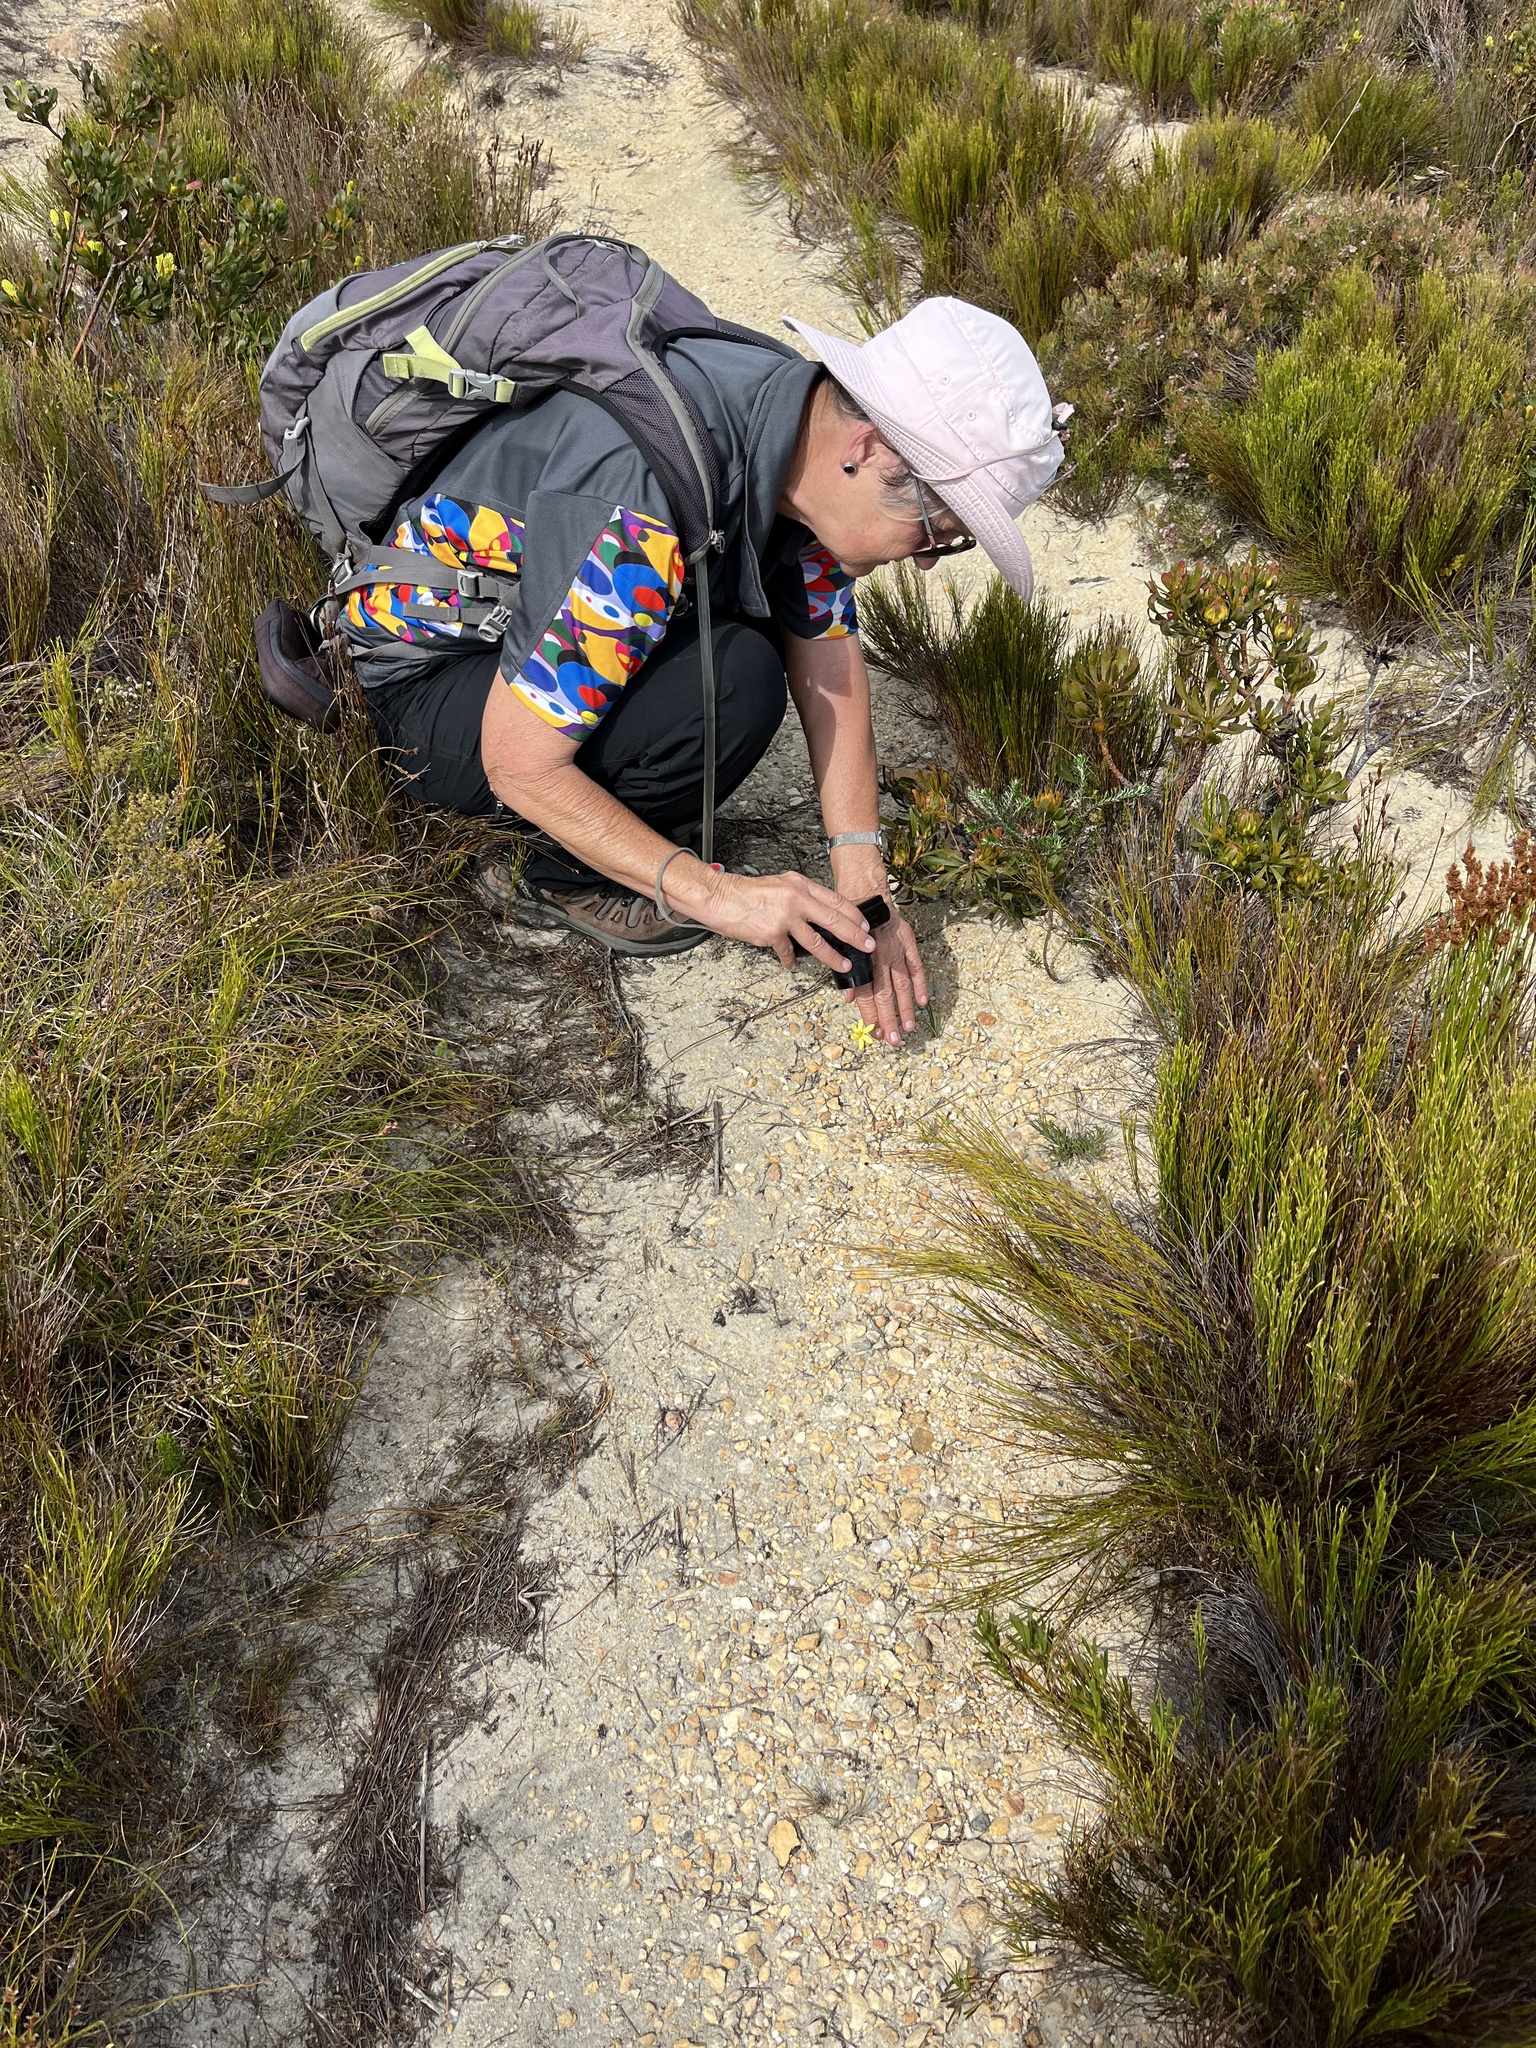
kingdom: Plantae
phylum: Tracheophyta
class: Liliopsida
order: Asparagales
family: Iridaceae
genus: Bobartia
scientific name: Bobartia filiformis
